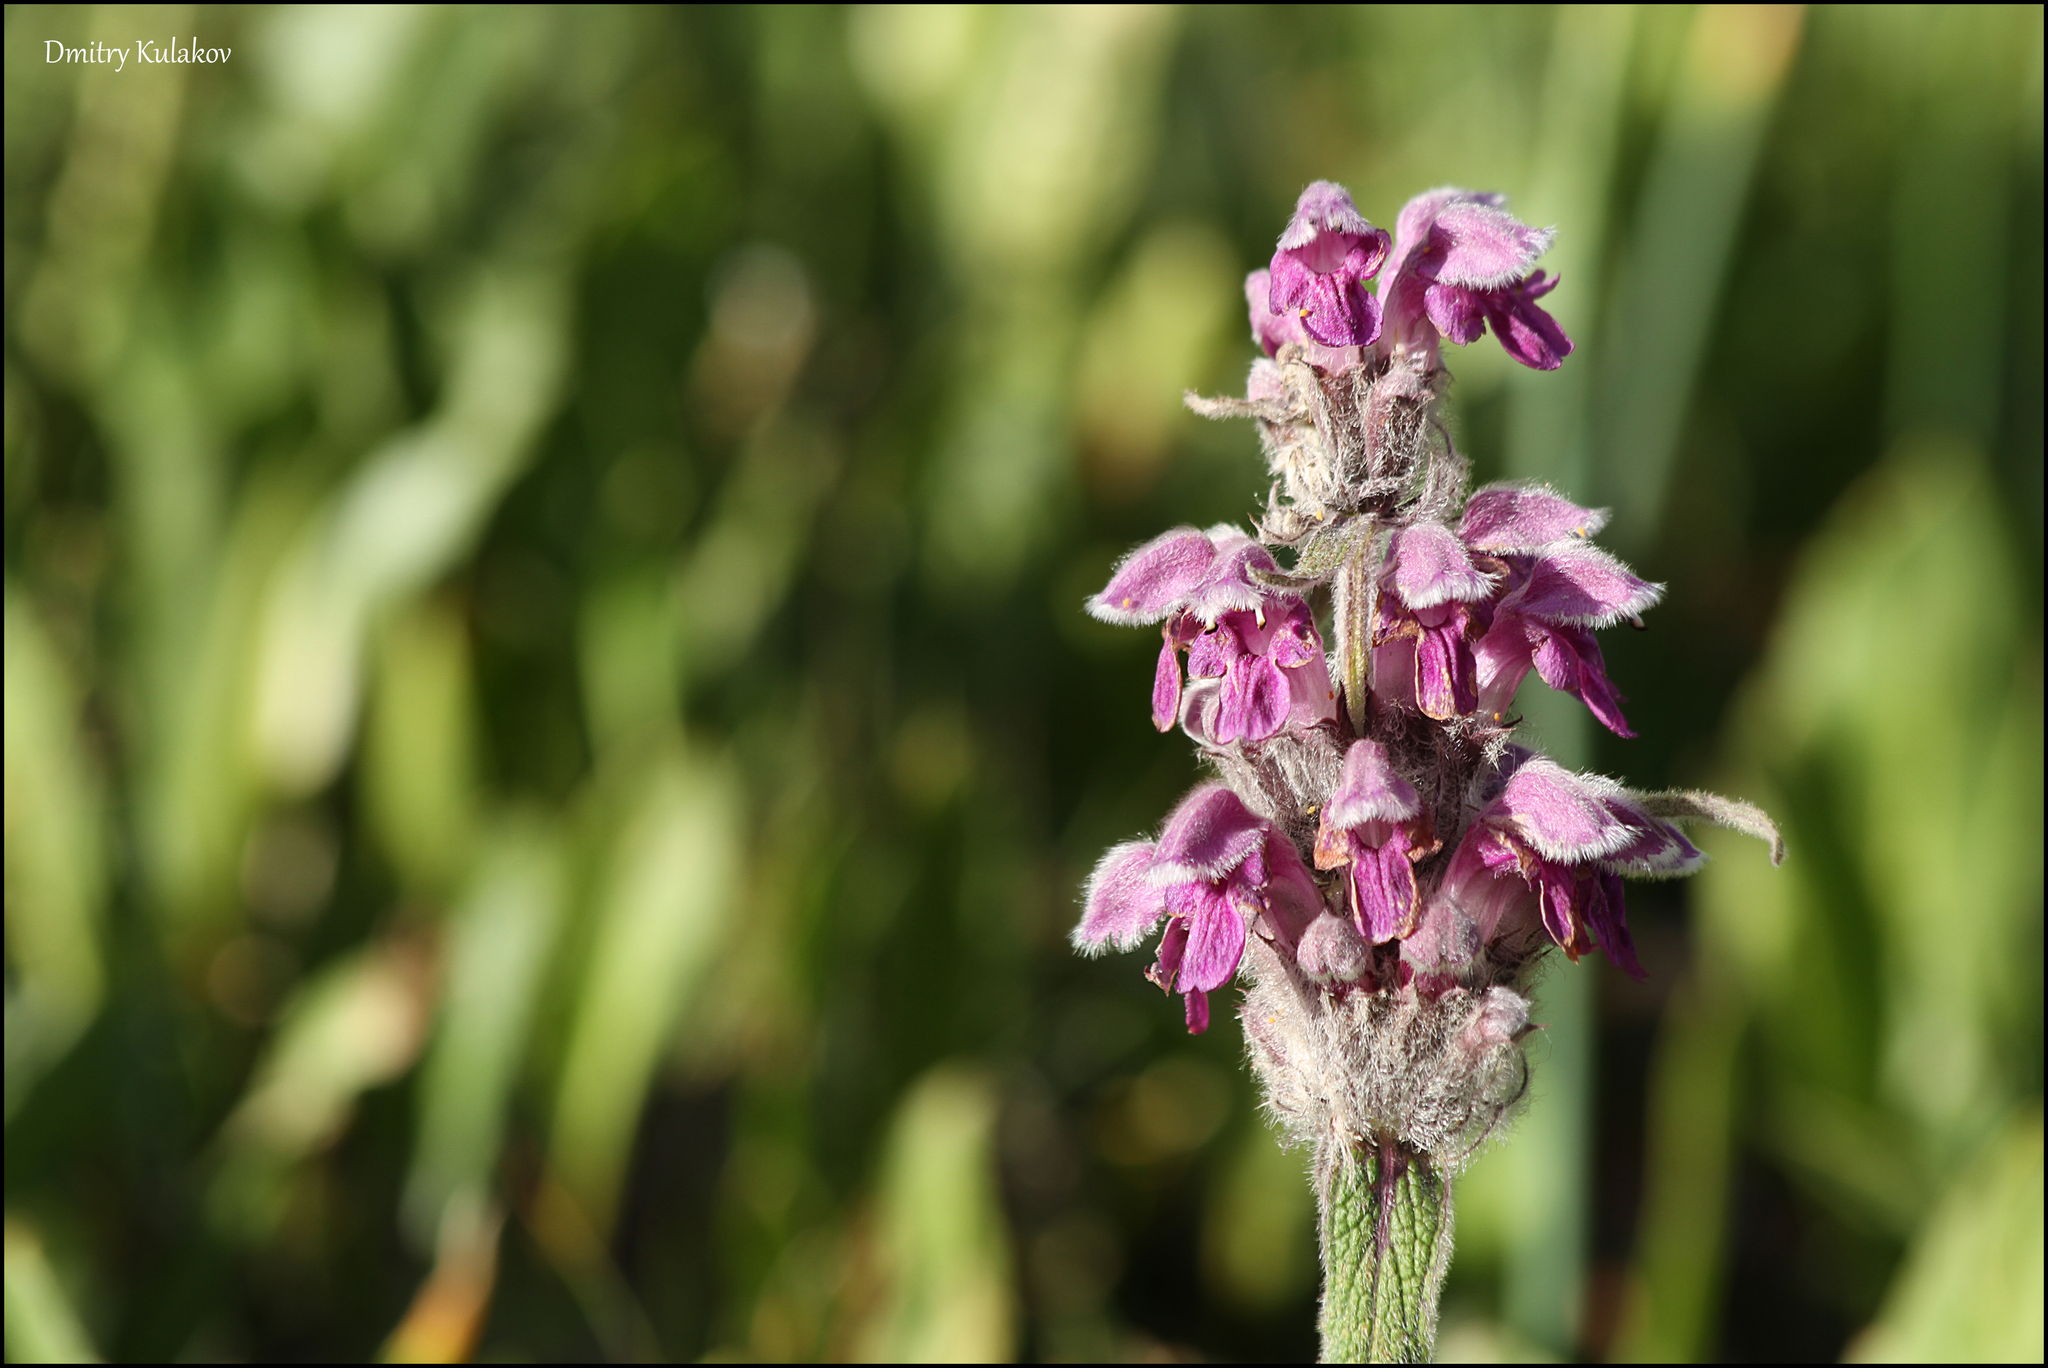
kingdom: Plantae
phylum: Tracheophyta
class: Magnoliopsida
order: Lamiales
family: Lamiaceae
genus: Phlomoides
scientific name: Phlomoides oreophila
